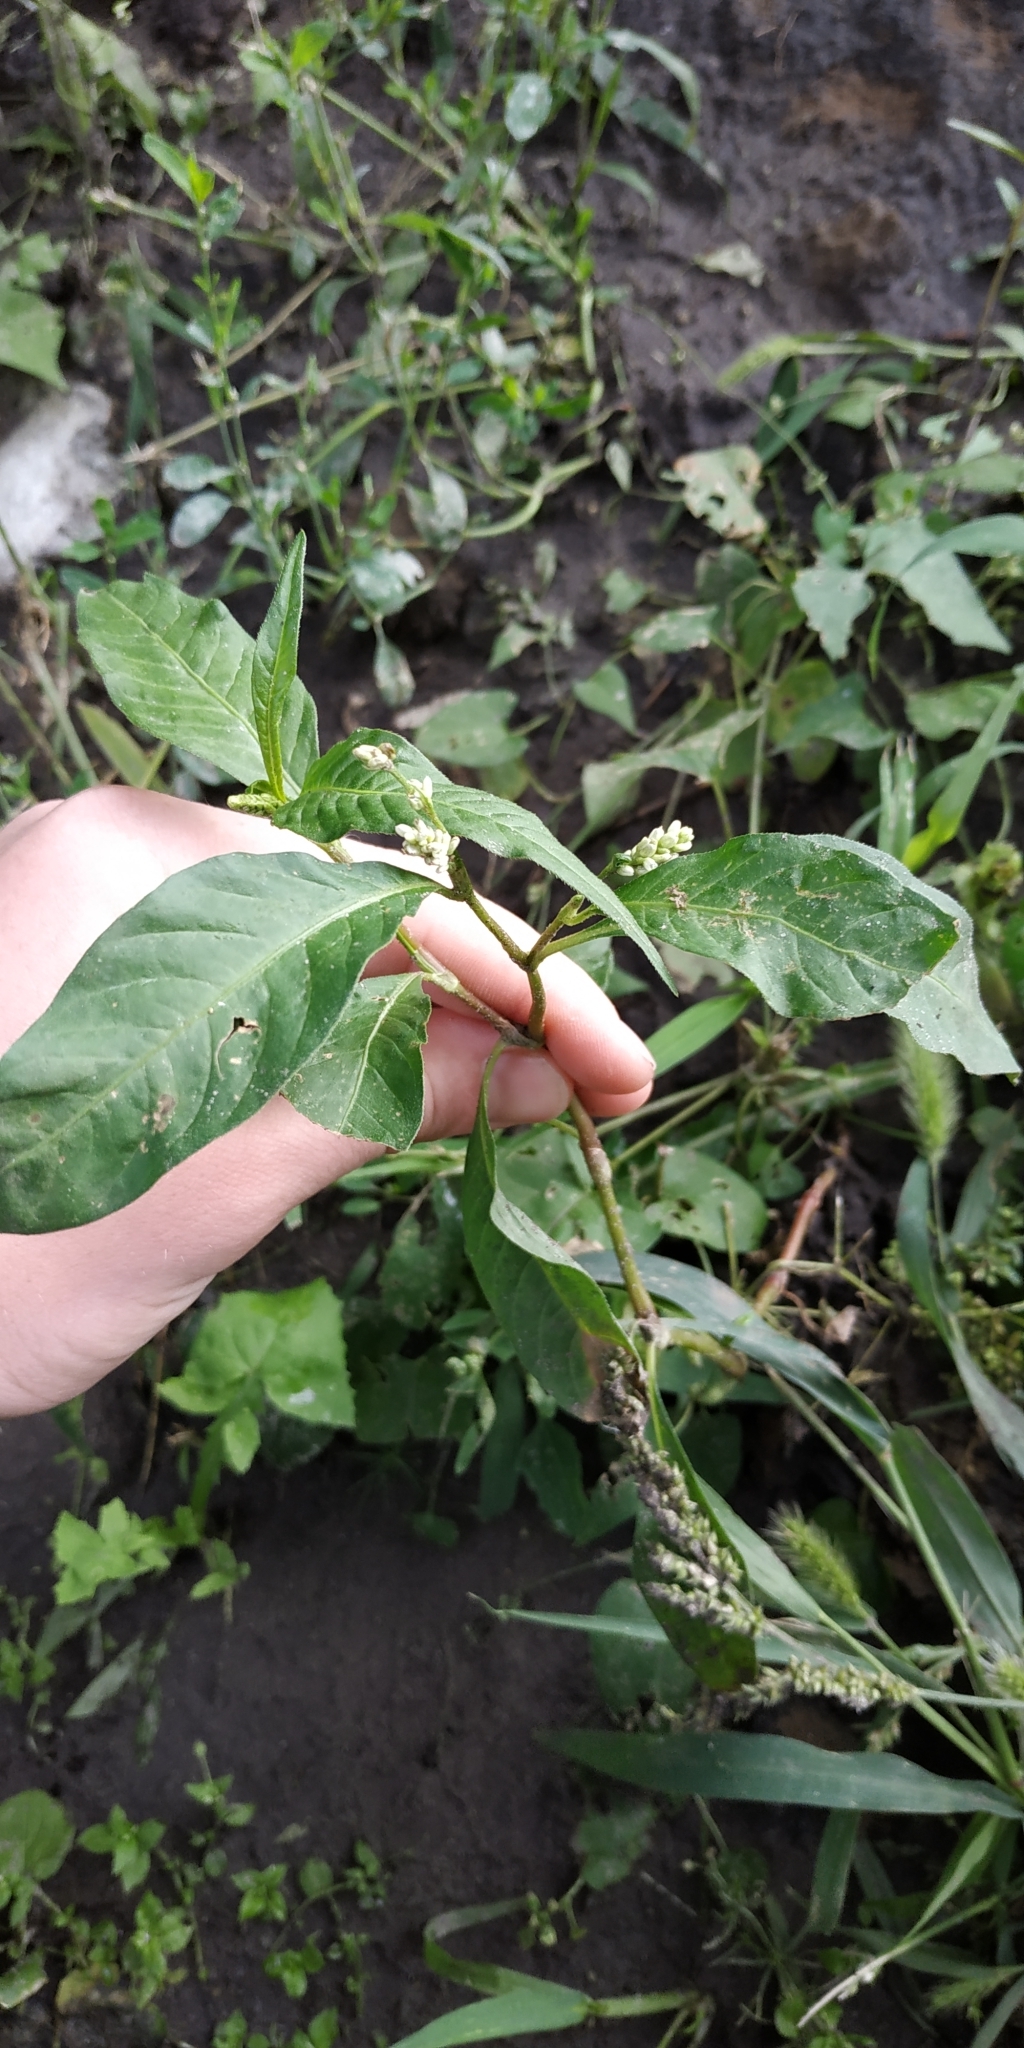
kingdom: Plantae
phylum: Tracheophyta
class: Magnoliopsida
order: Caryophyllales
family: Polygonaceae
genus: Persicaria
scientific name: Persicaria lapathifolia
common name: Curlytop knotweed
